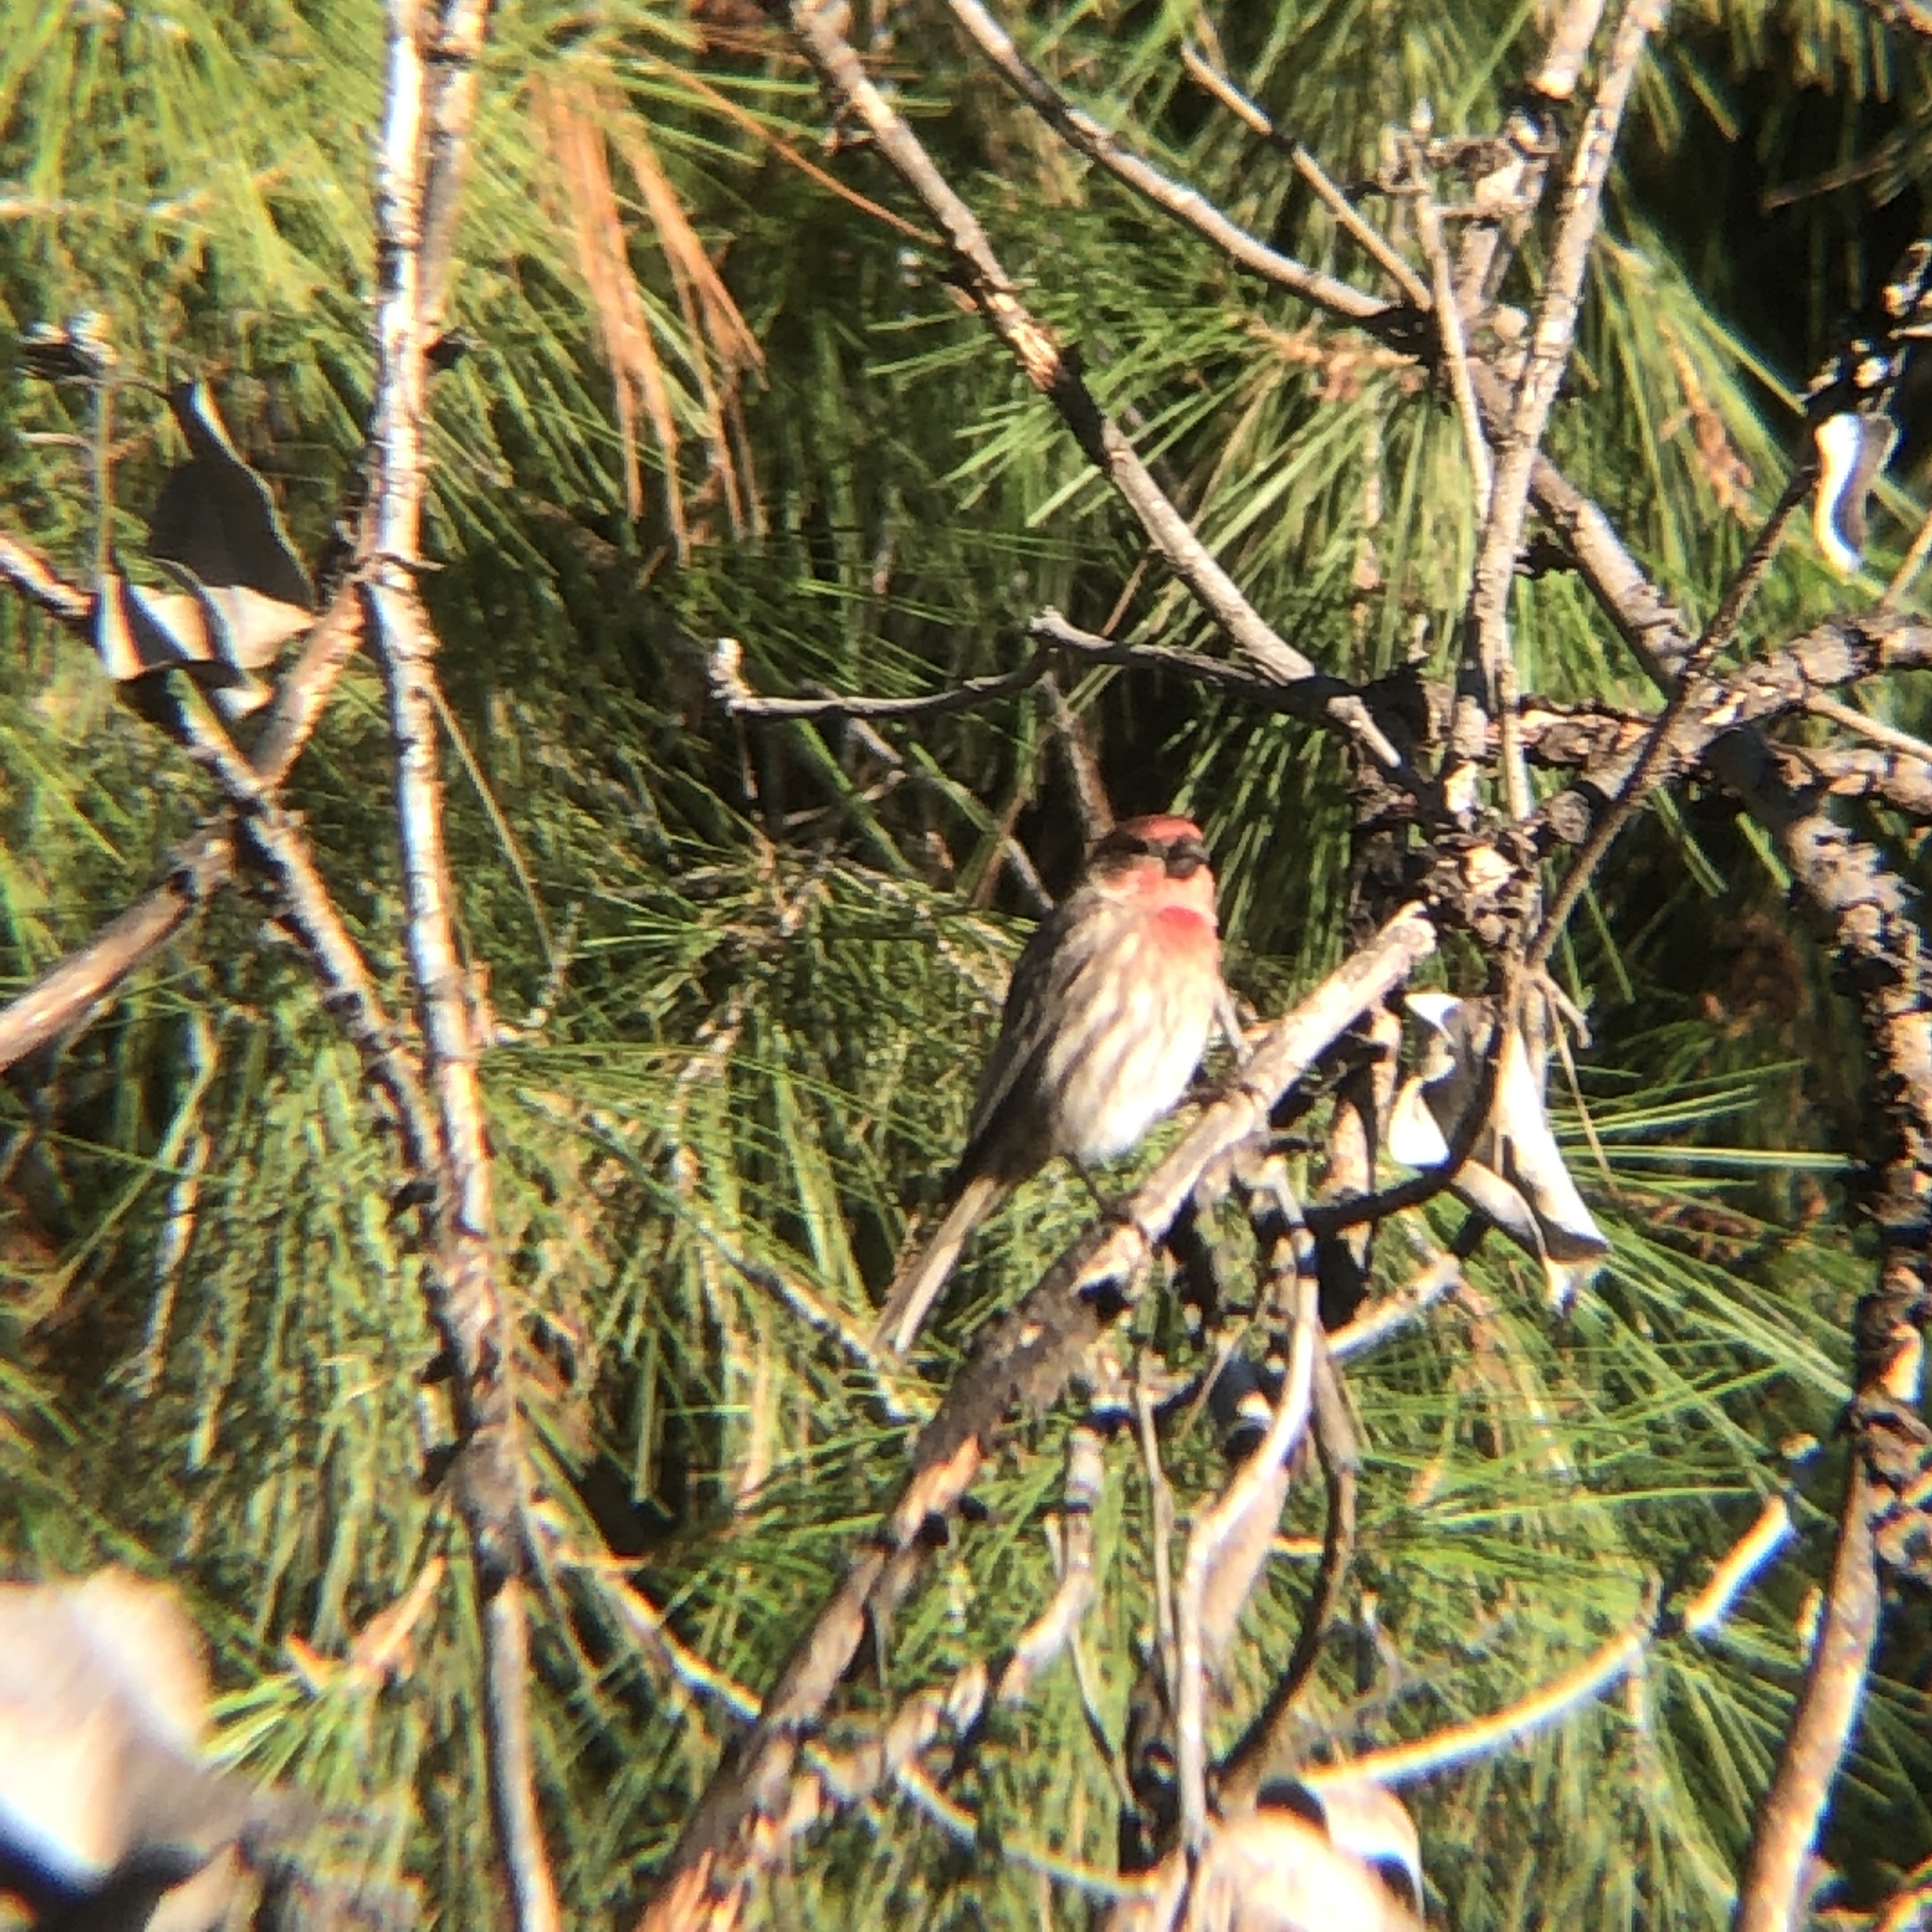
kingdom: Animalia
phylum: Chordata
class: Aves
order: Passeriformes
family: Fringillidae
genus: Haemorhous
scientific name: Haemorhous mexicanus
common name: House finch
